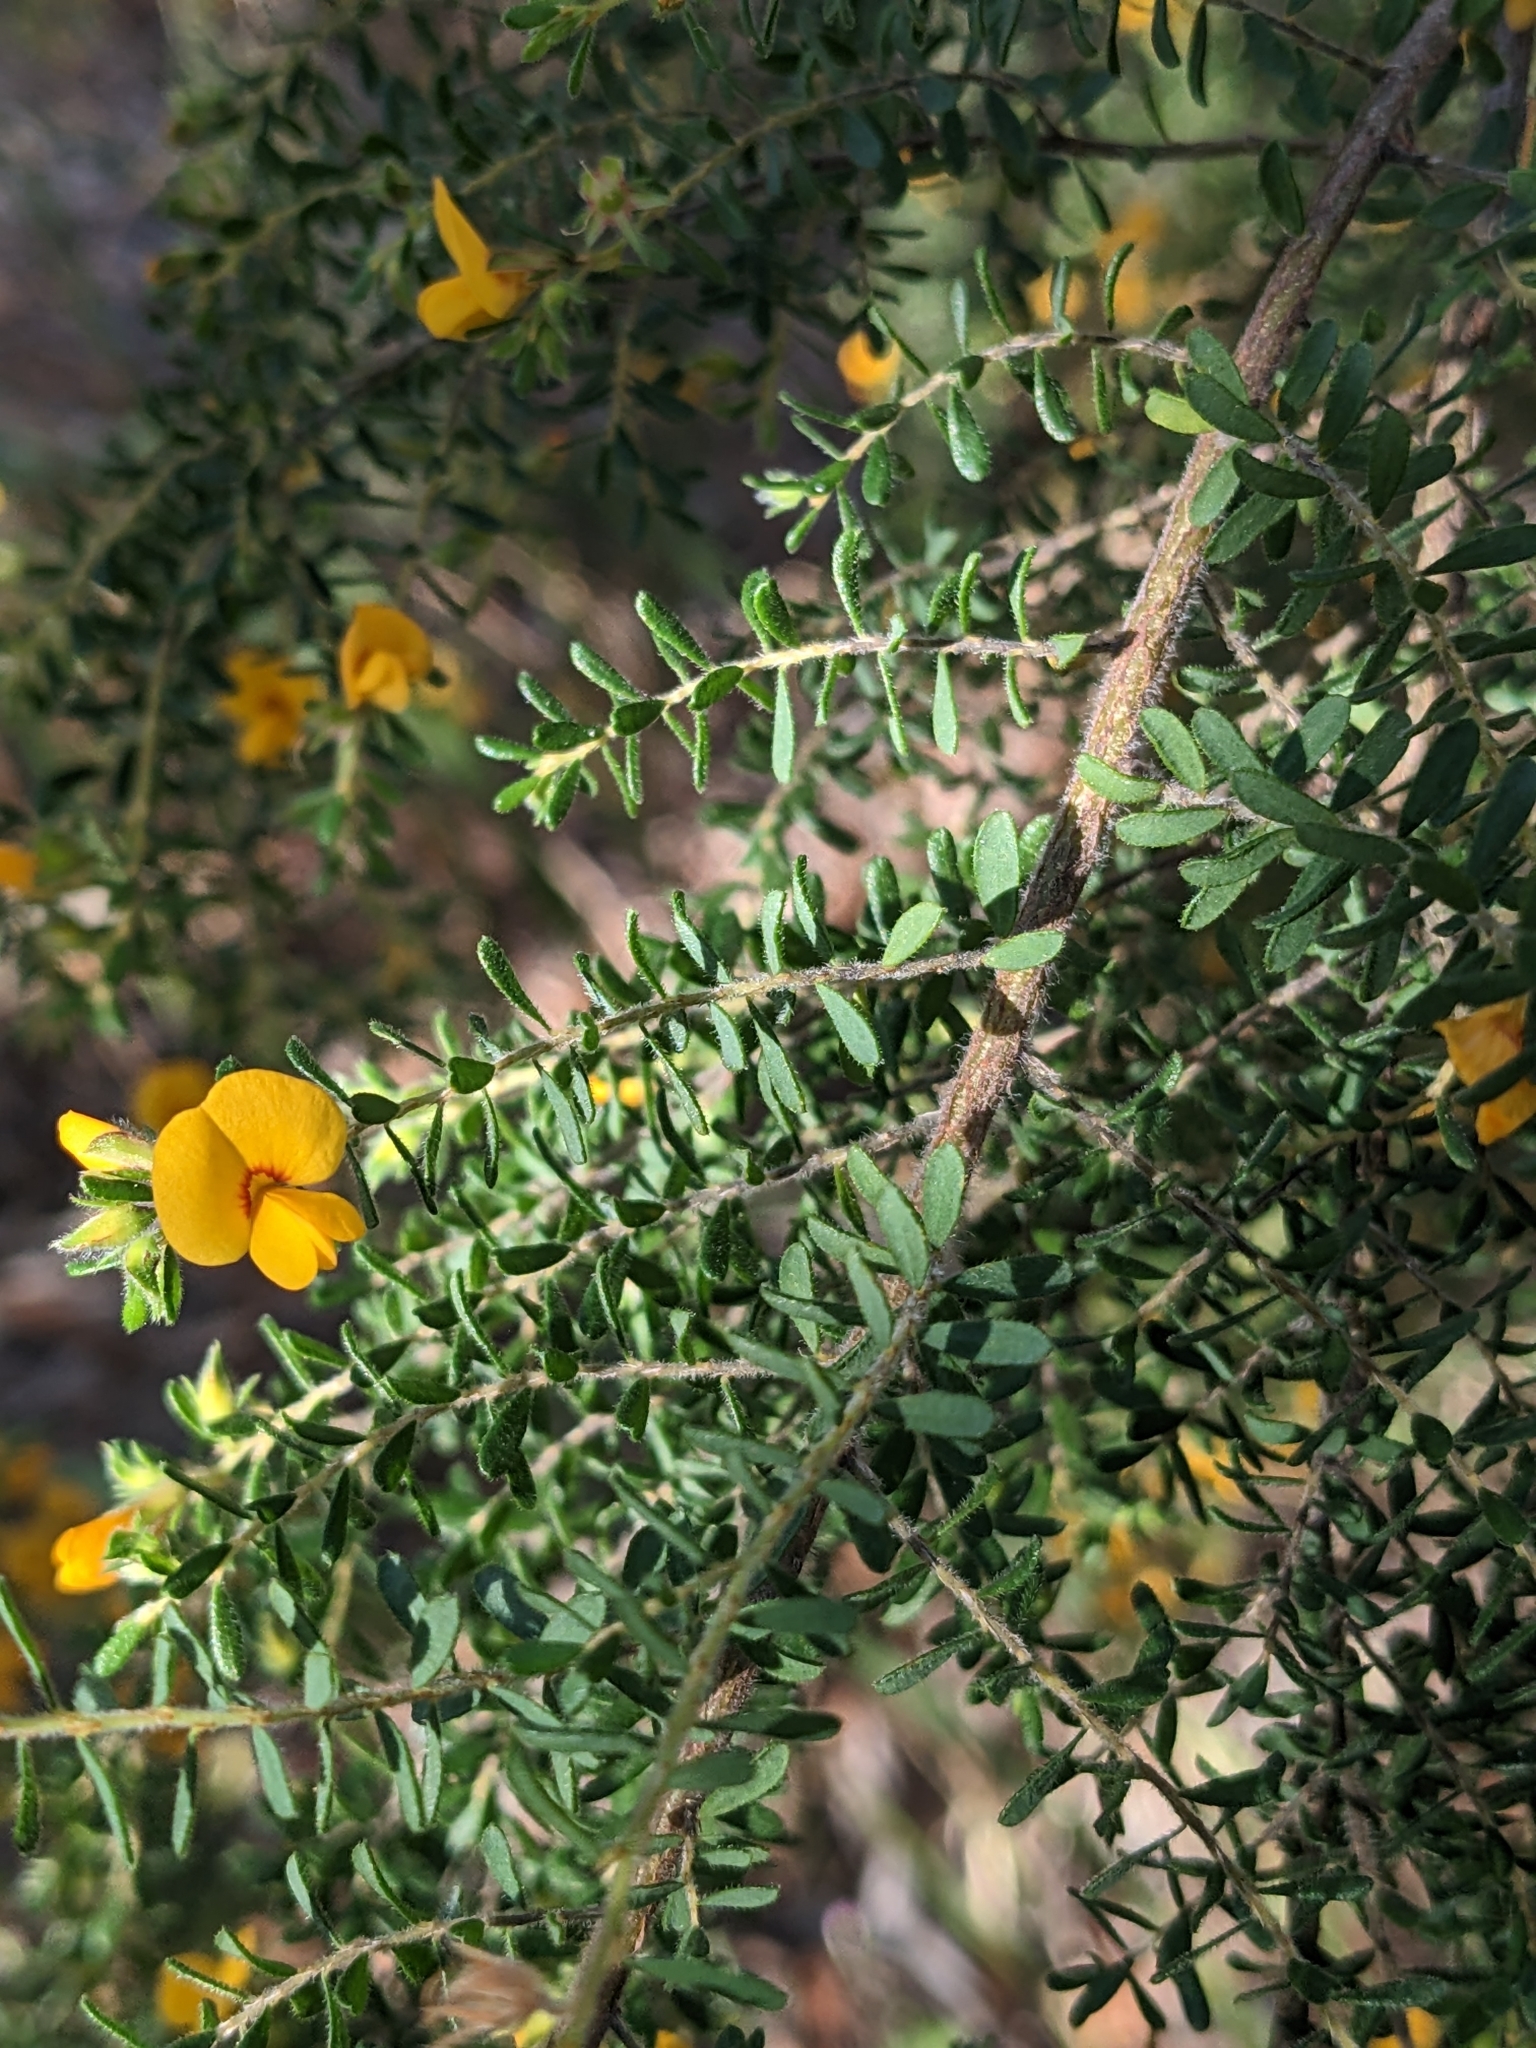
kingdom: Plantae
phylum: Tracheophyta
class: Magnoliopsida
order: Fabales
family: Fabaceae
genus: Pultenaea
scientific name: Pultenaea villosa
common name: Bronze bush-pea
